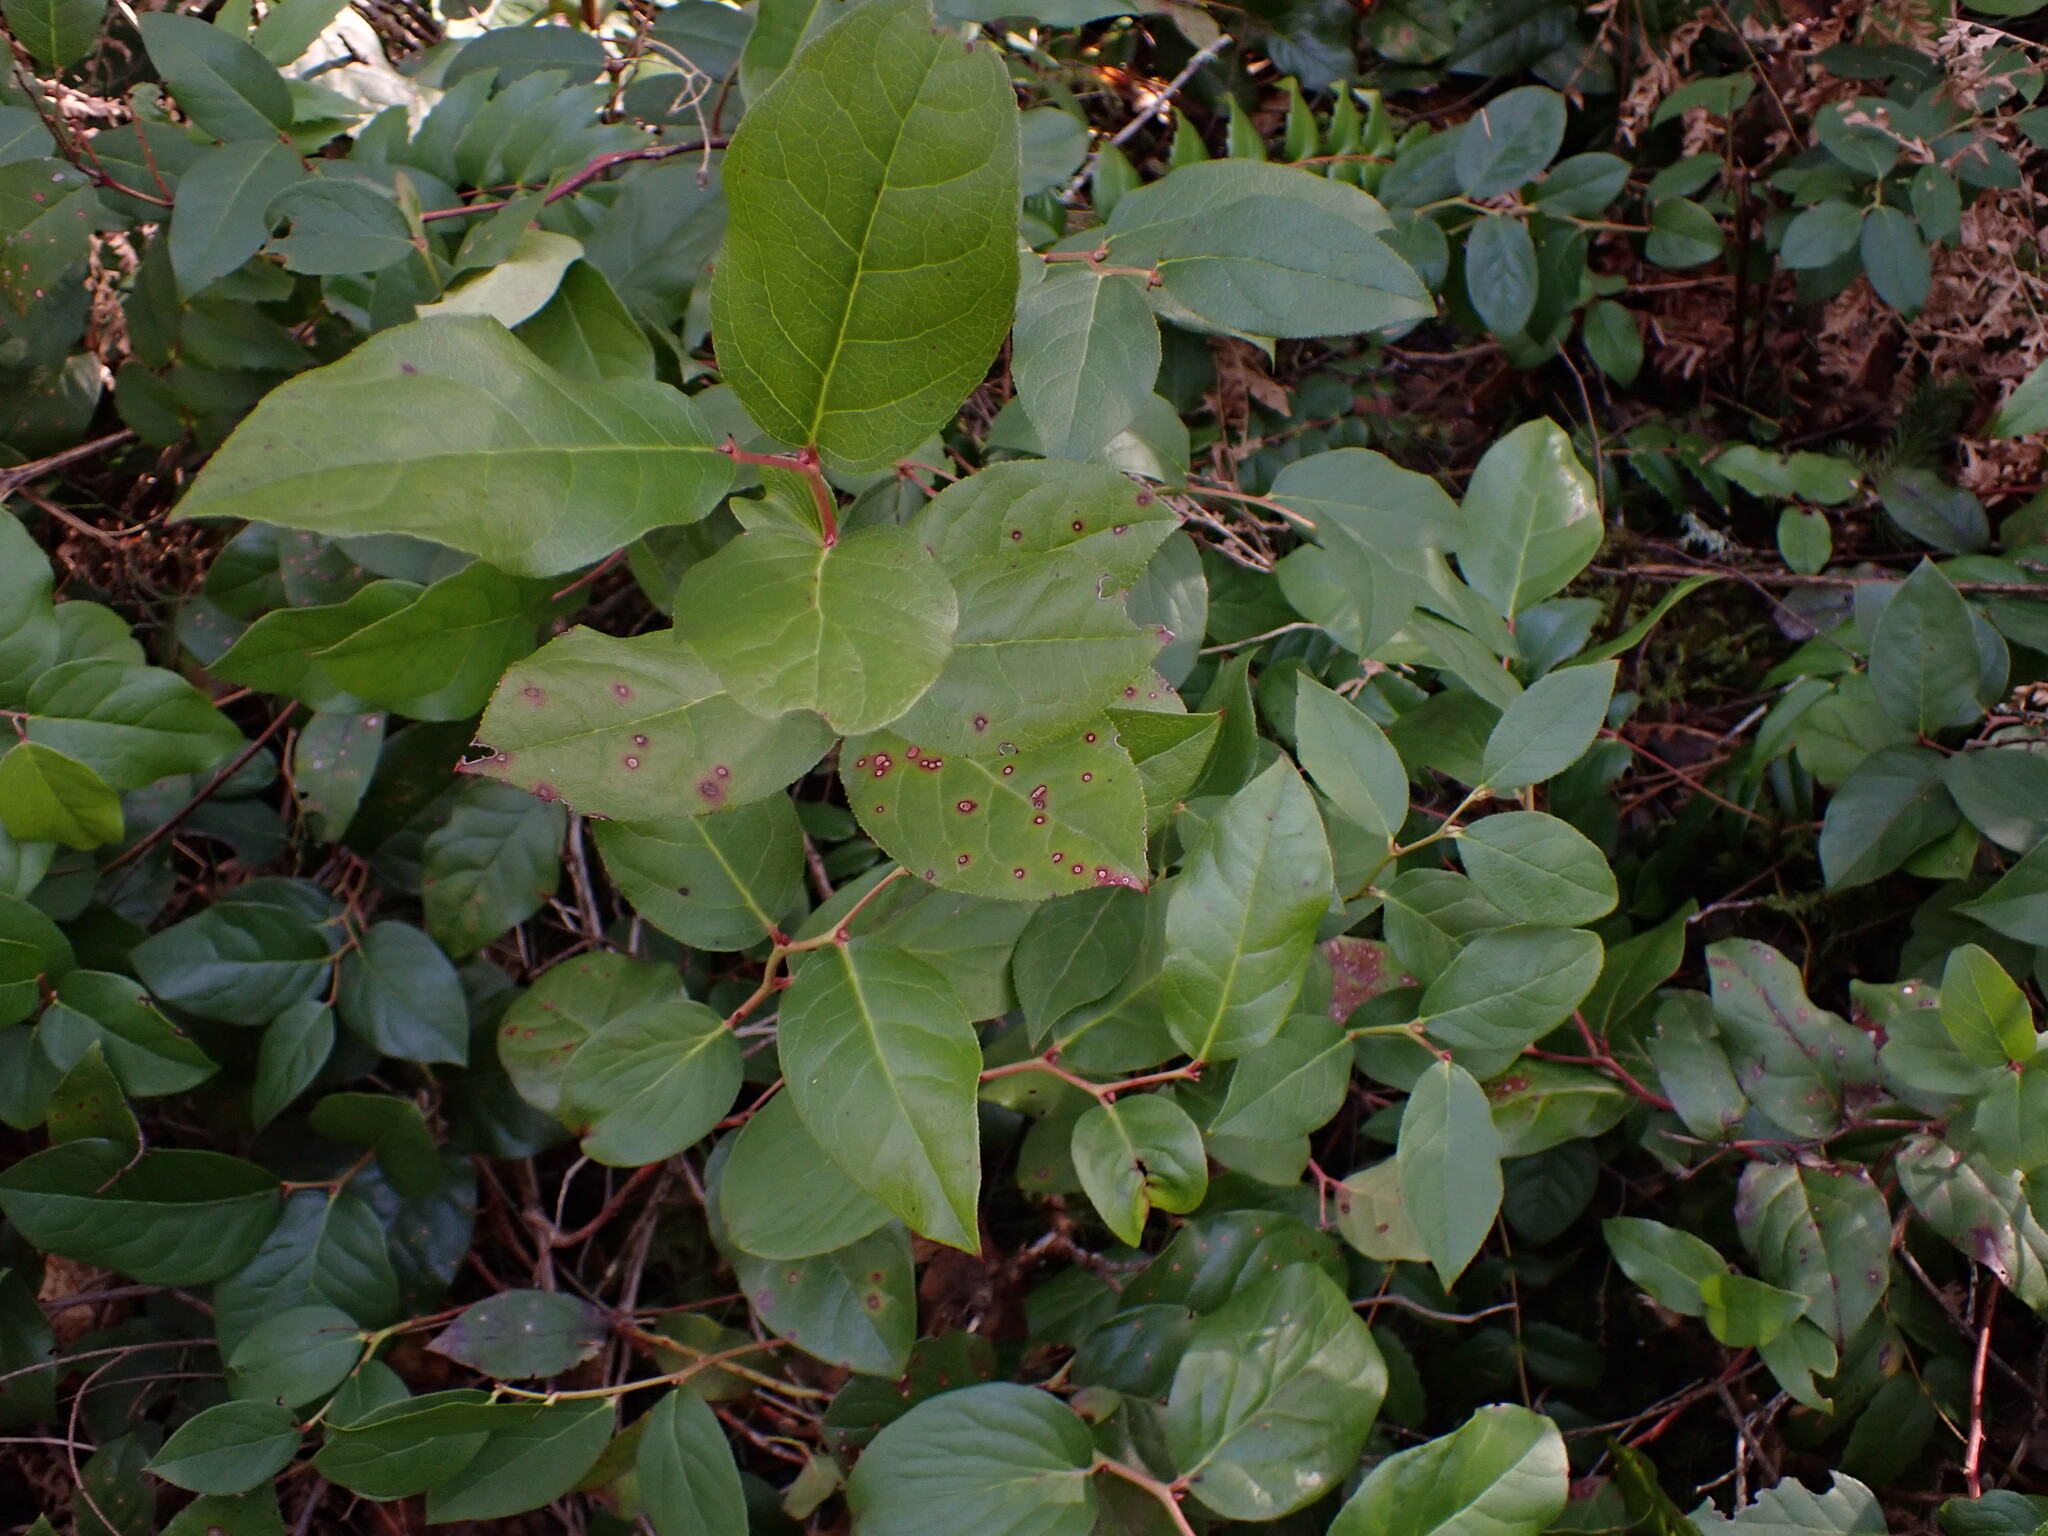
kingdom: Plantae
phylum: Tracheophyta
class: Magnoliopsida
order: Ericales
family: Ericaceae
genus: Gaultheria
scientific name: Gaultheria shallon
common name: Shallon
